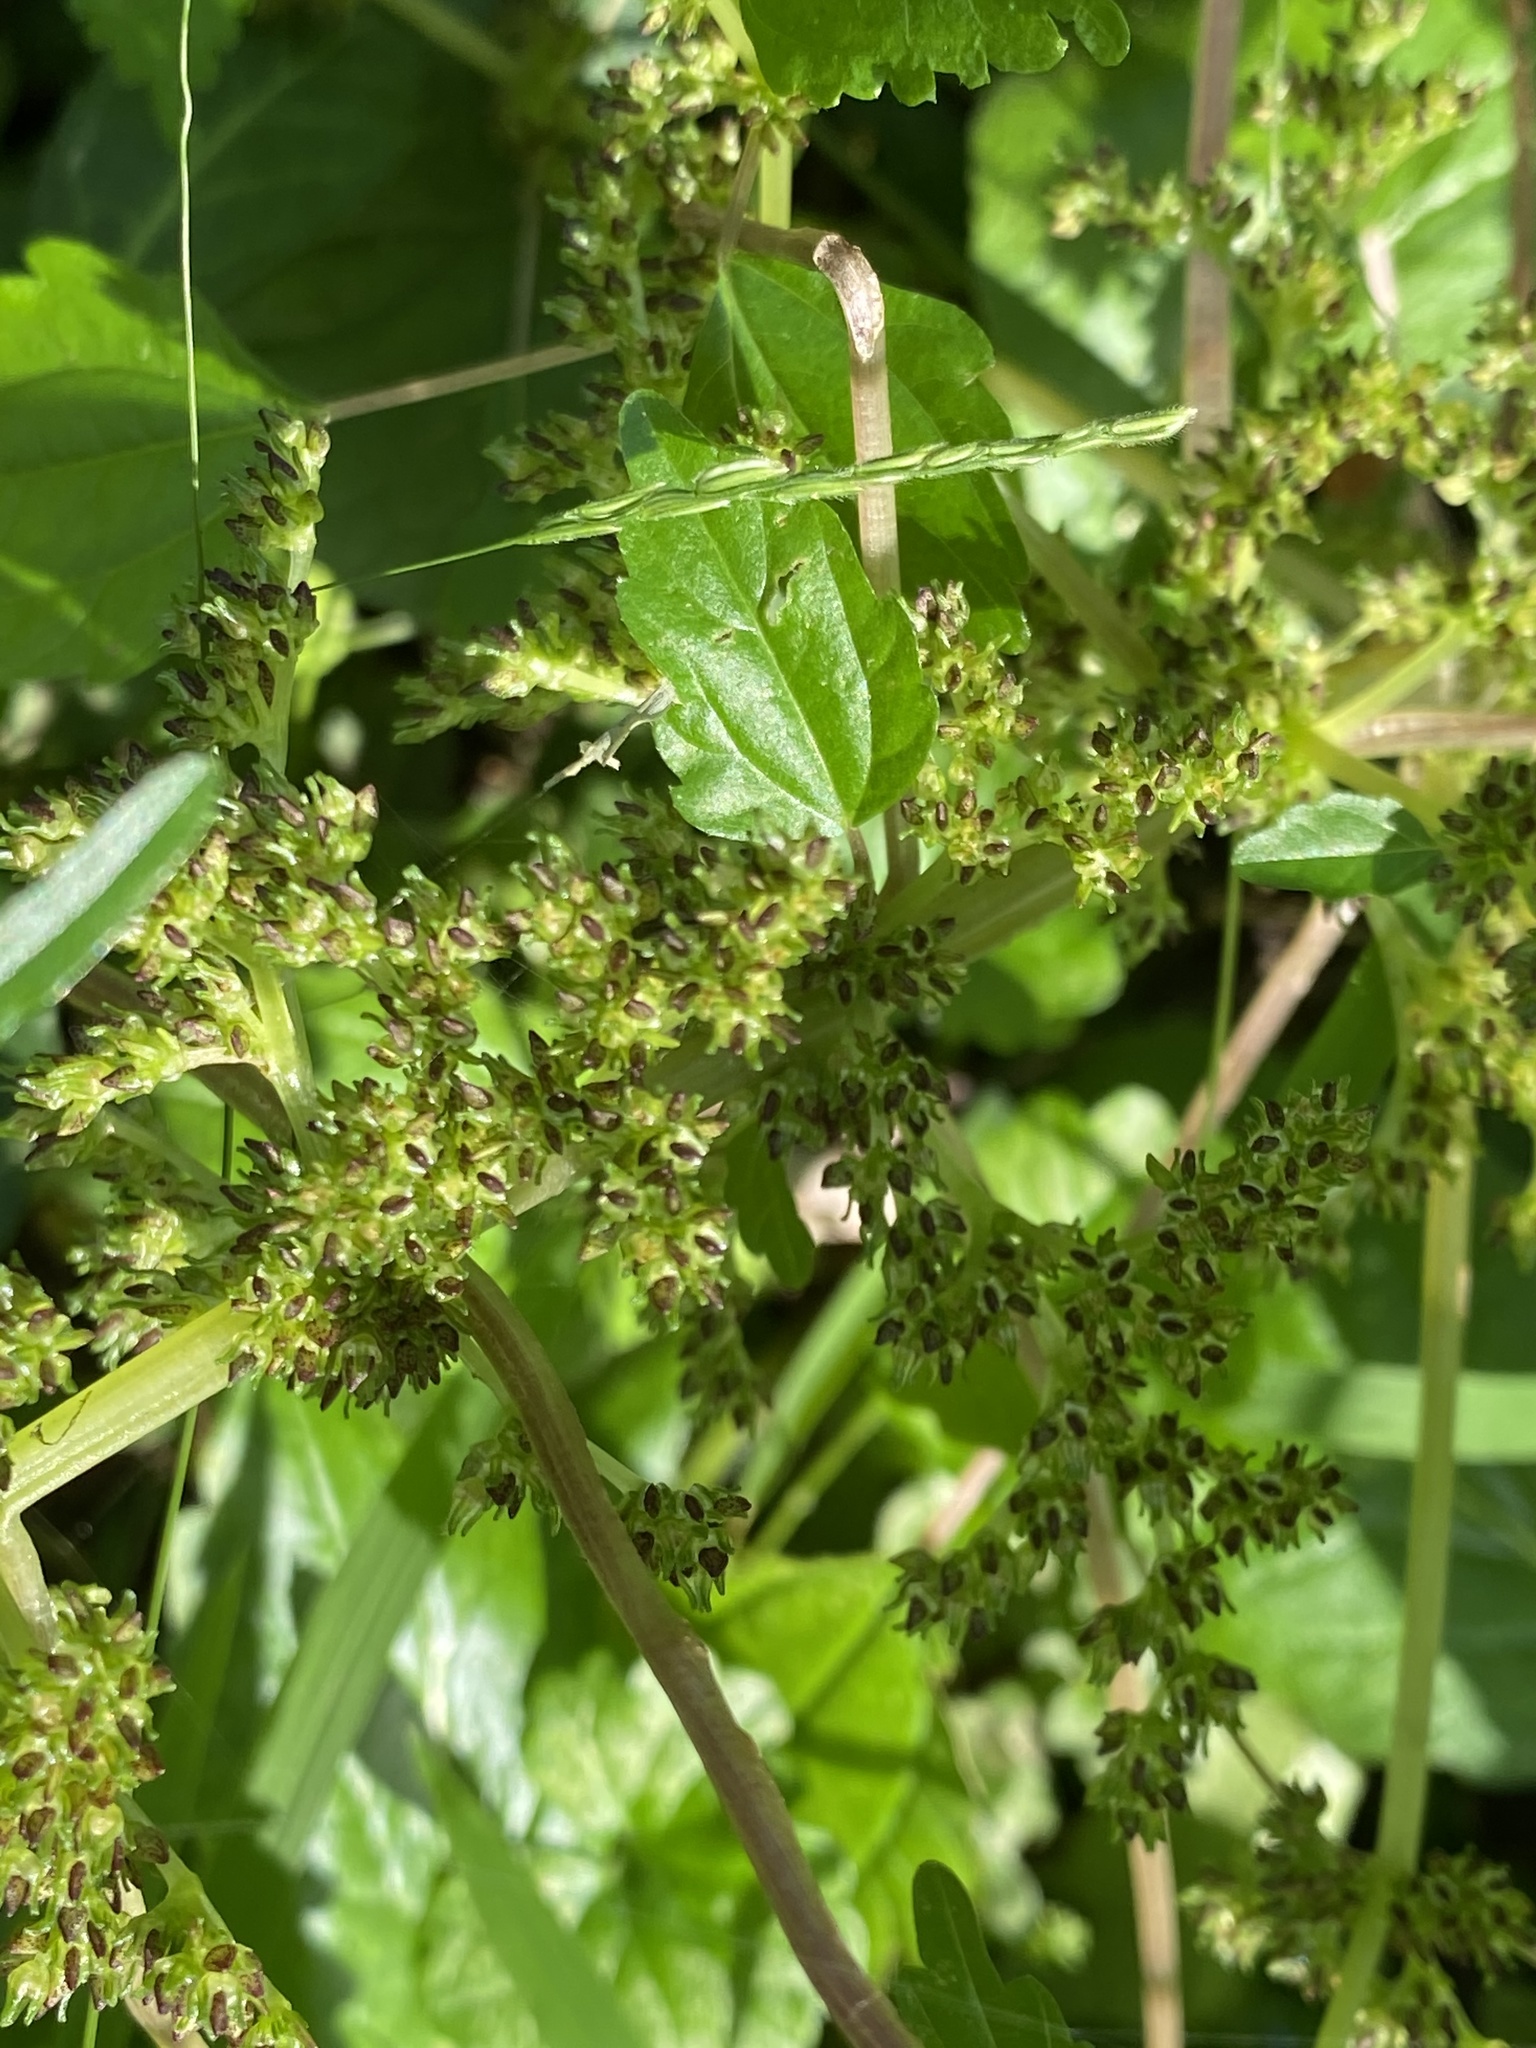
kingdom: Plantae
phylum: Tracheophyta
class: Magnoliopsida
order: Rosales
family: Urticaceae
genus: Pilea
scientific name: Pilea pumila
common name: Clearweed
